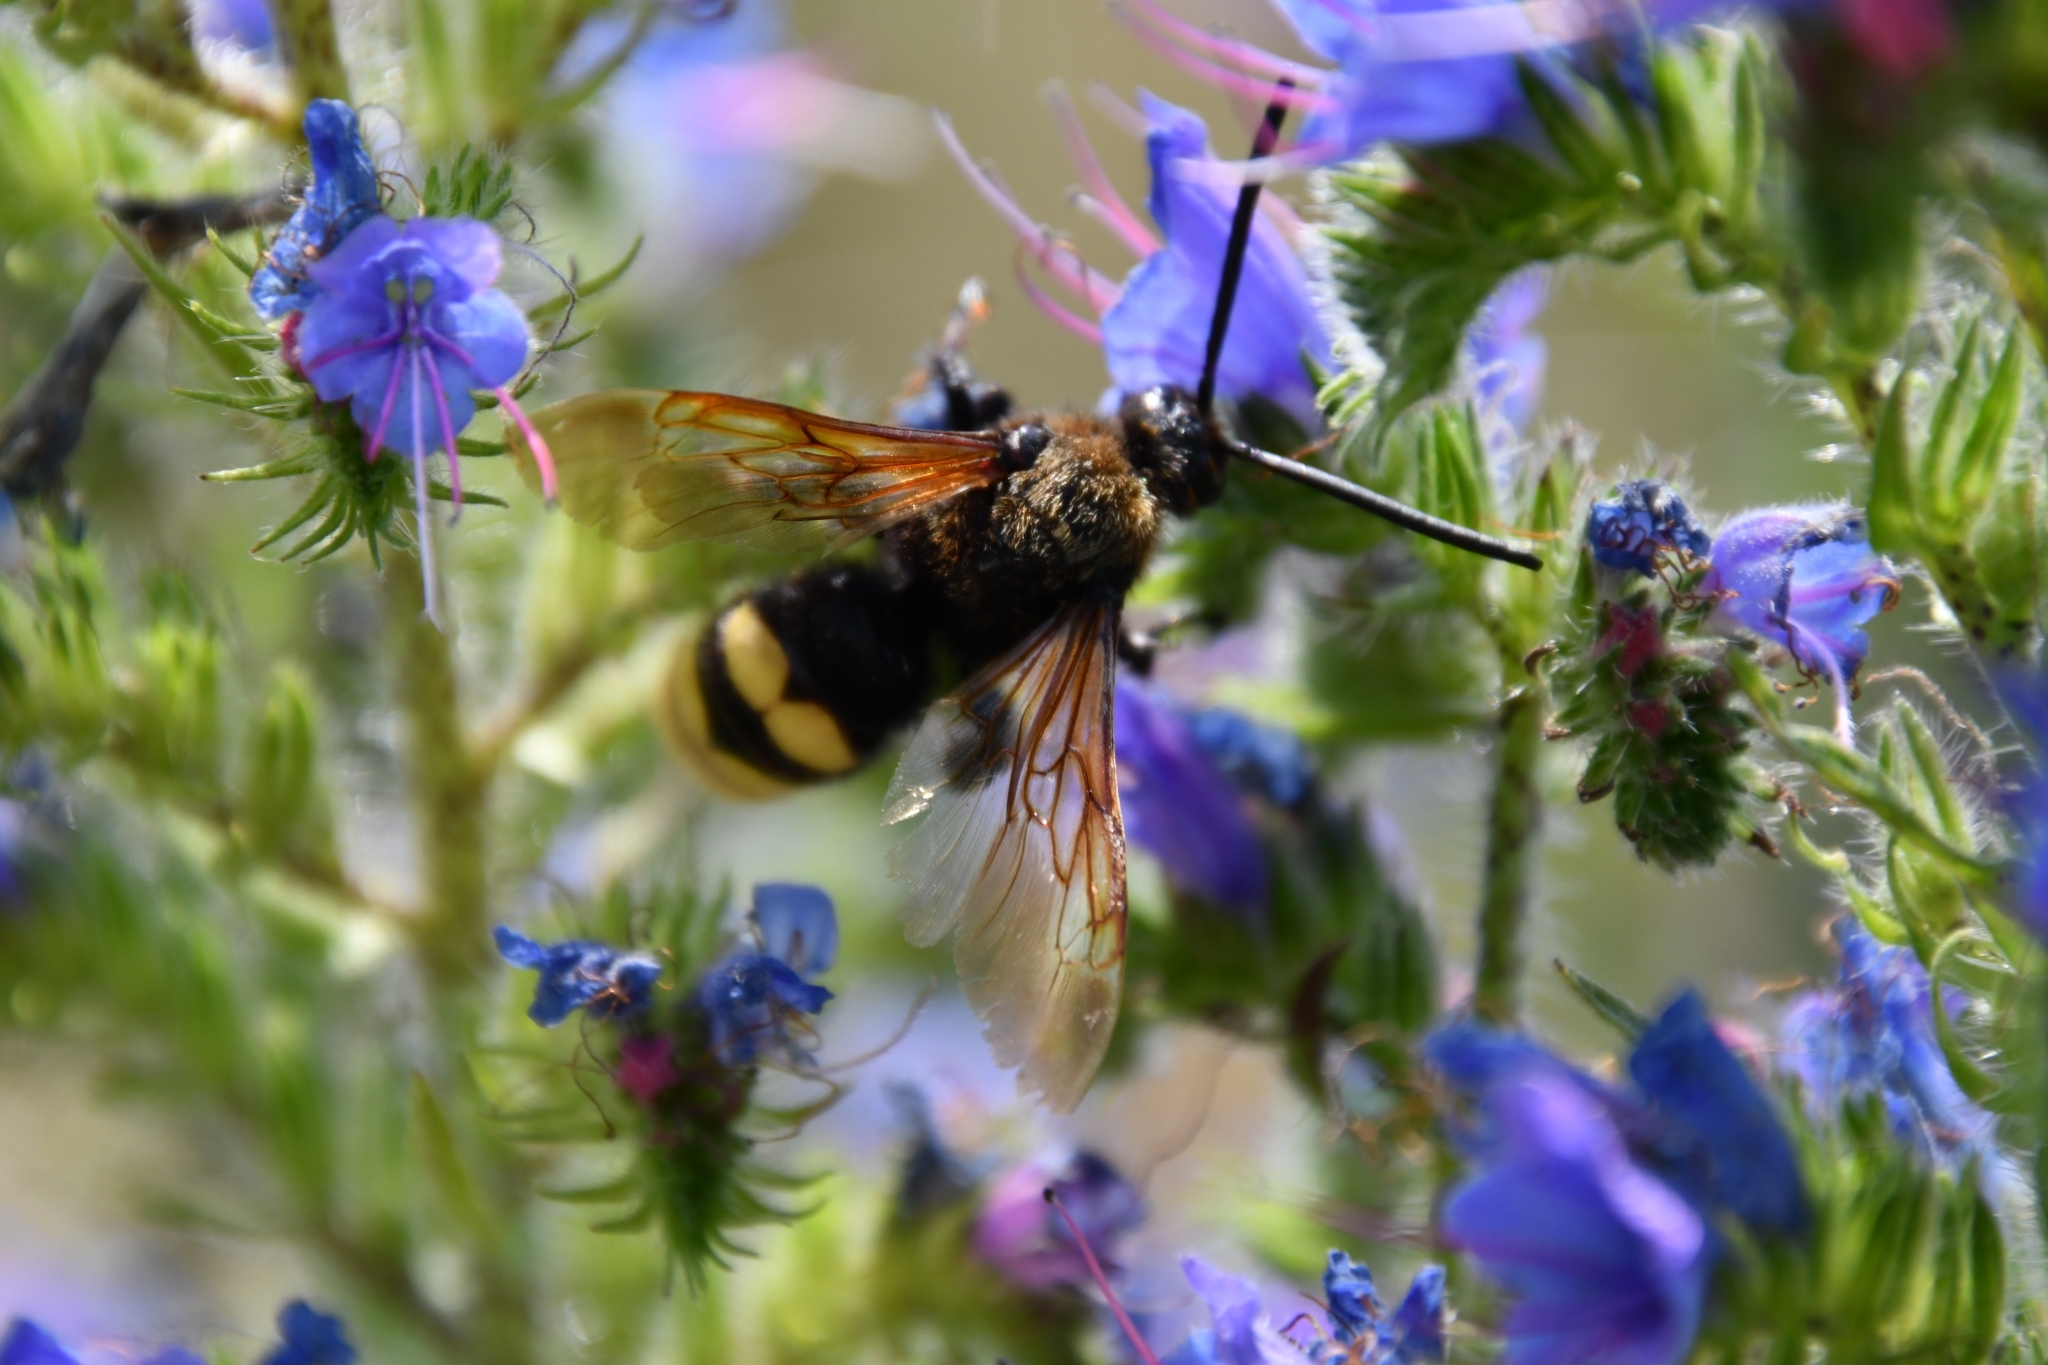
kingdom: Animalia
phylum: Arthropoda
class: Insecta
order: Hymenoptera
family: Scoliidae
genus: Megascolia
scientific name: Megascolia maculata
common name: Mammoth wasp
